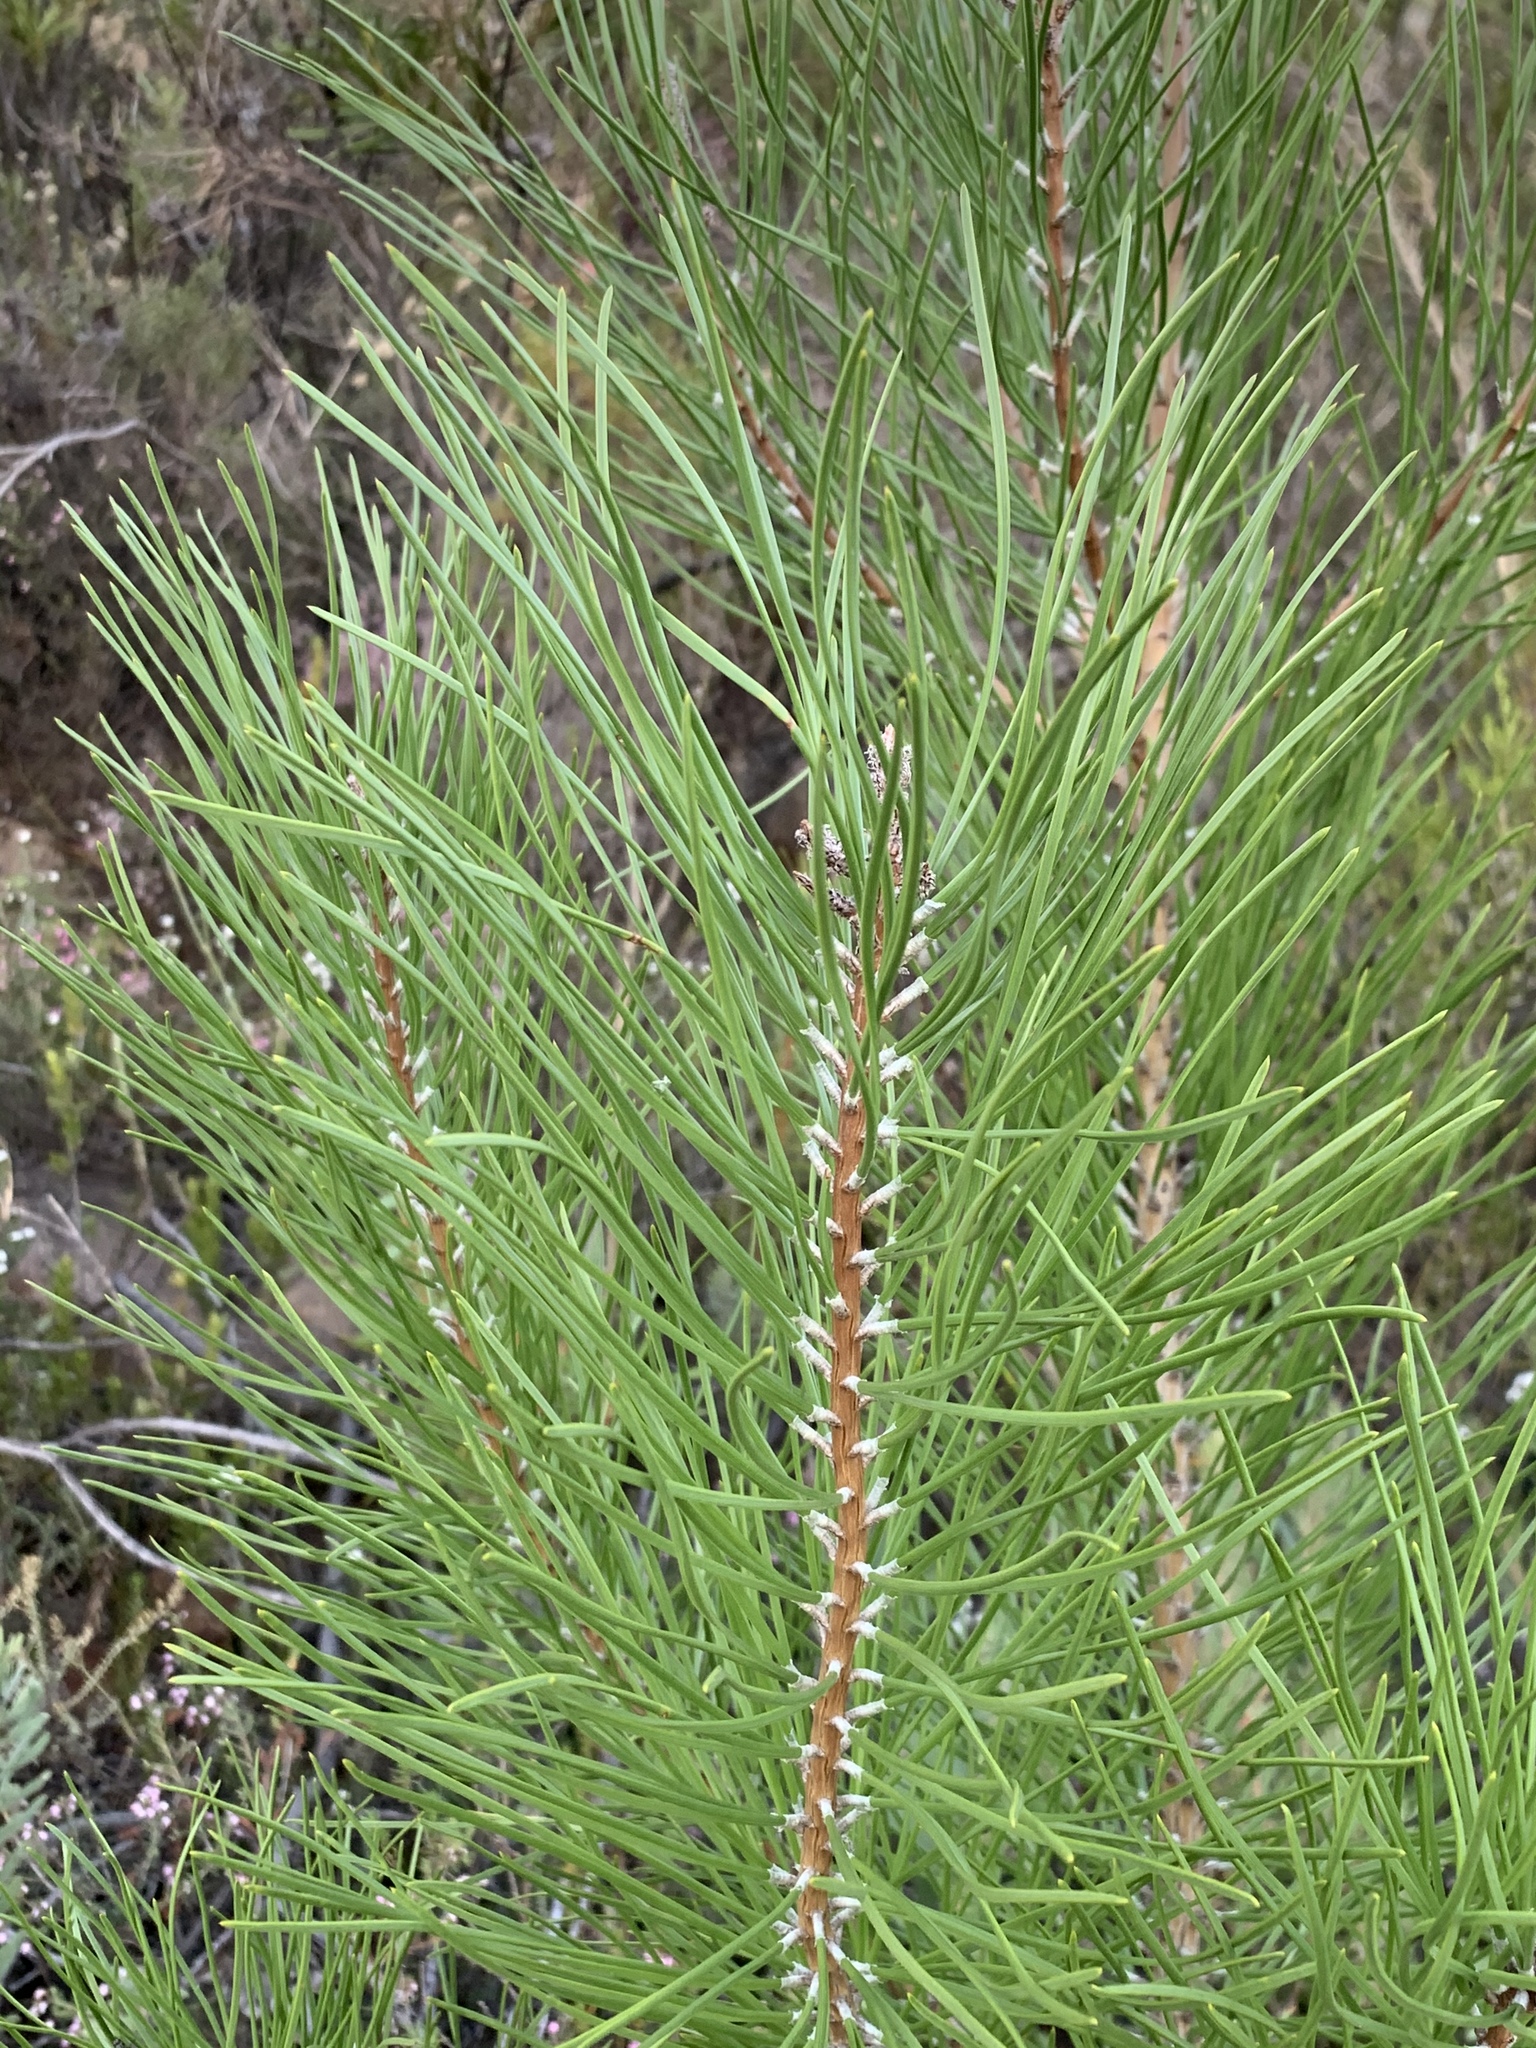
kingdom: Plantae
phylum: Tracheophyta
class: Pinopsida
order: Pinales
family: Pinaceae
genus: Pinus
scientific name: Pinus pinaster
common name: Maritime pine
